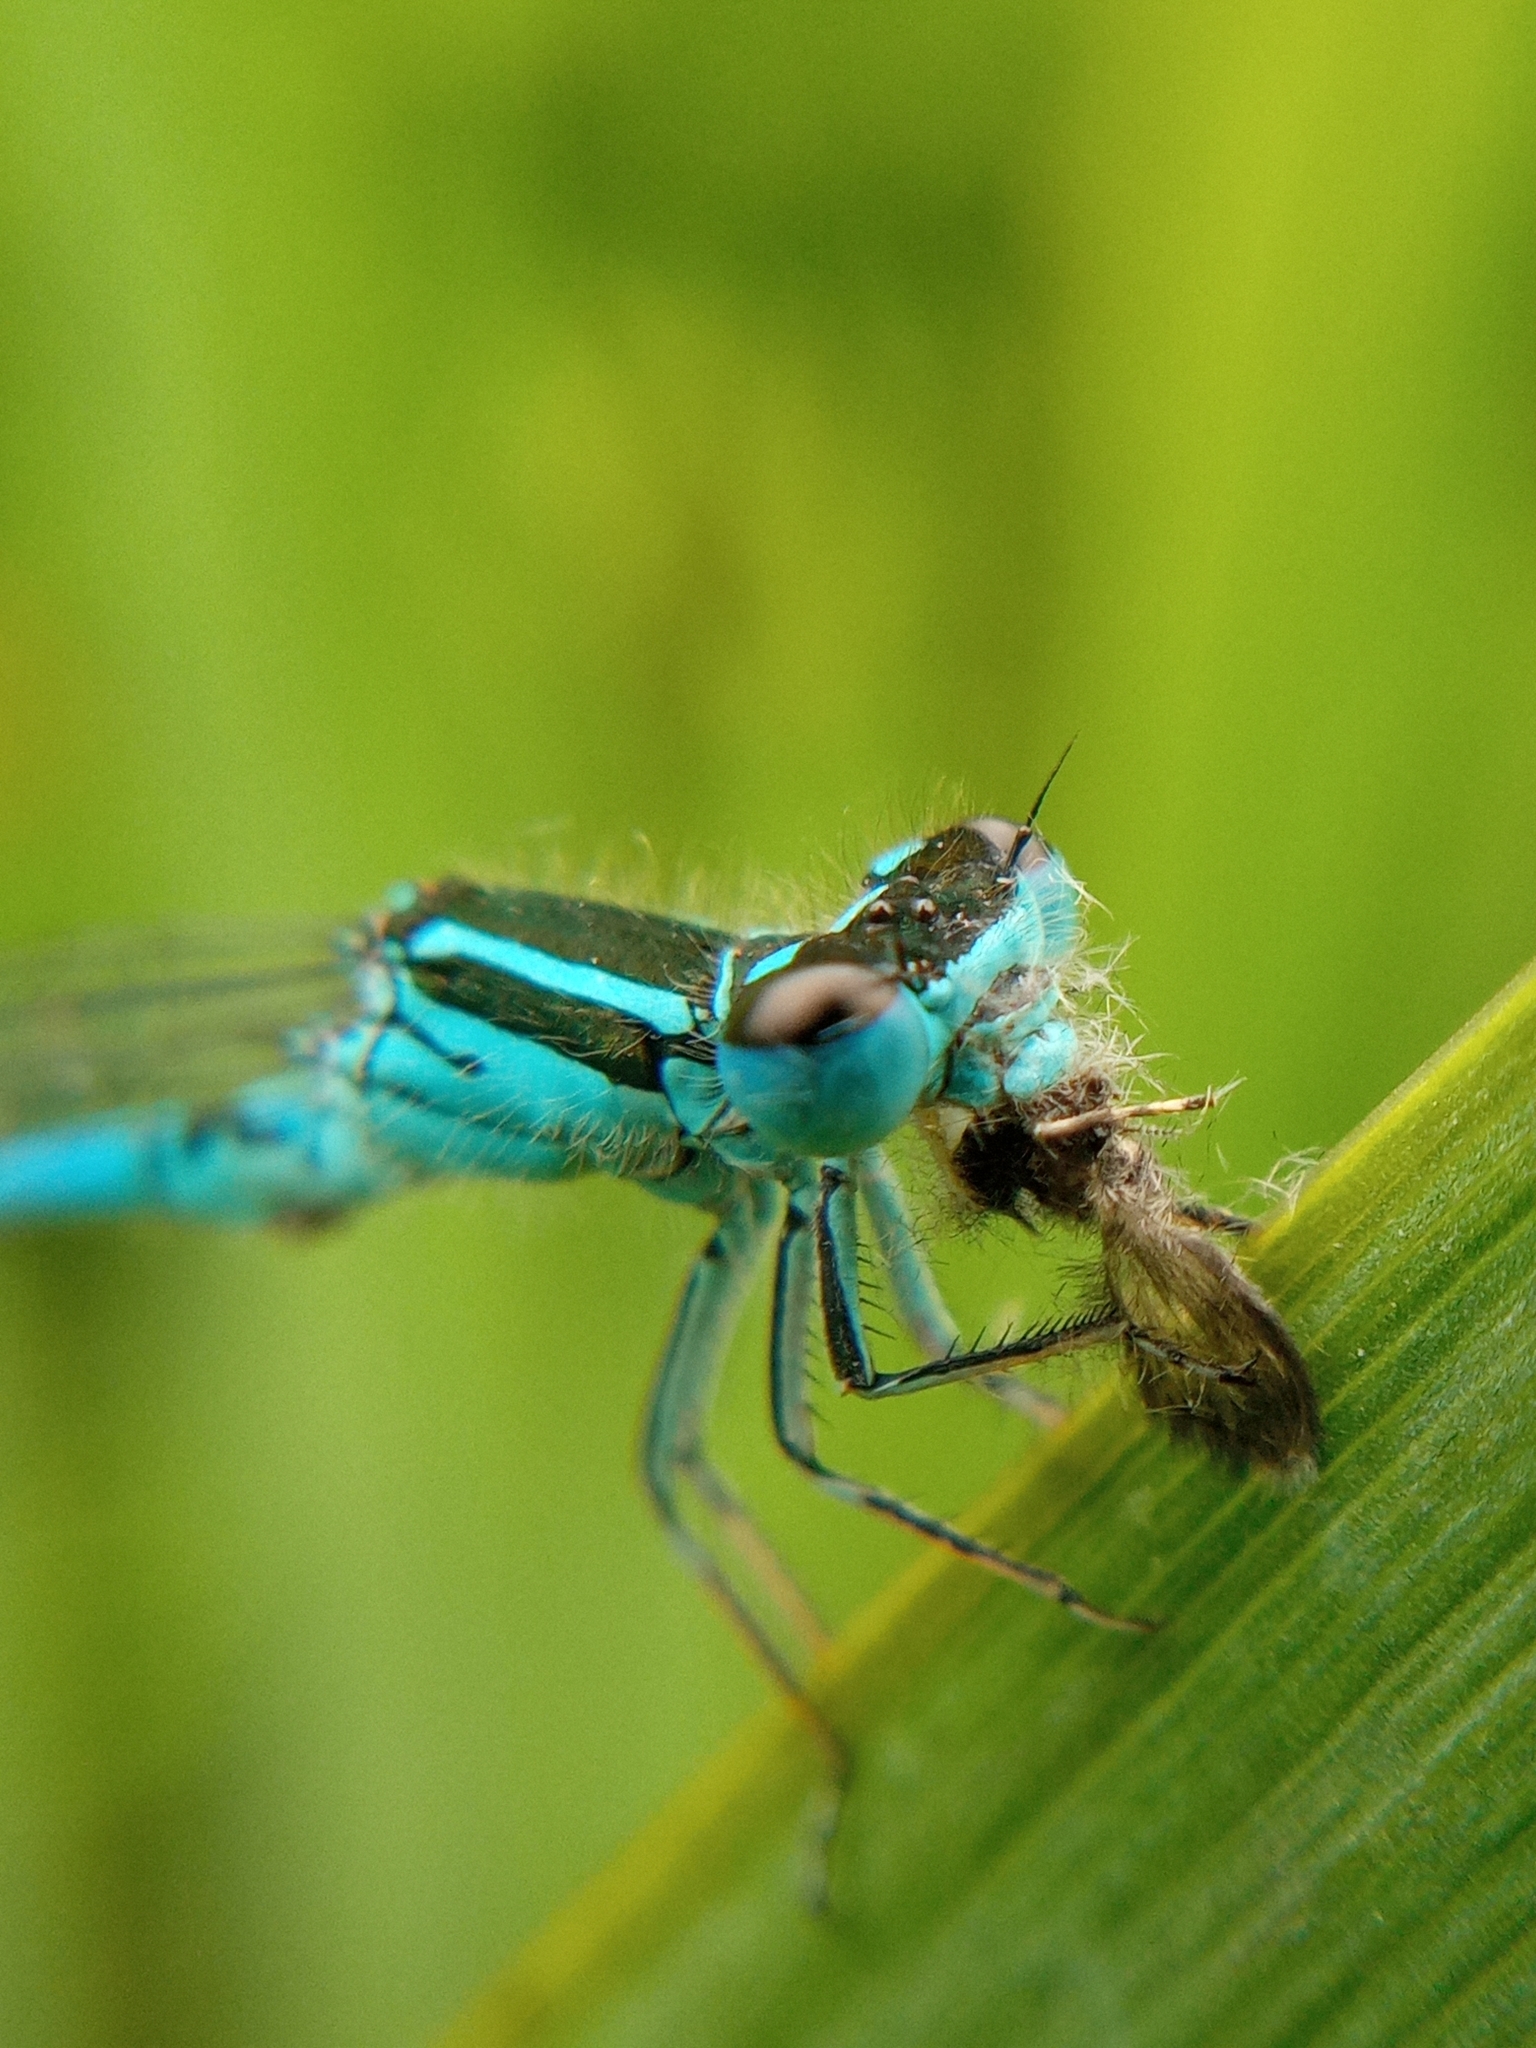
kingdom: Animalia
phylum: Arthropoda
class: Insecta
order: Odonata
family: Coenagrionidae
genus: Coenagrion
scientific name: Coenagrion mercuriale
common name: Southern damselfly
